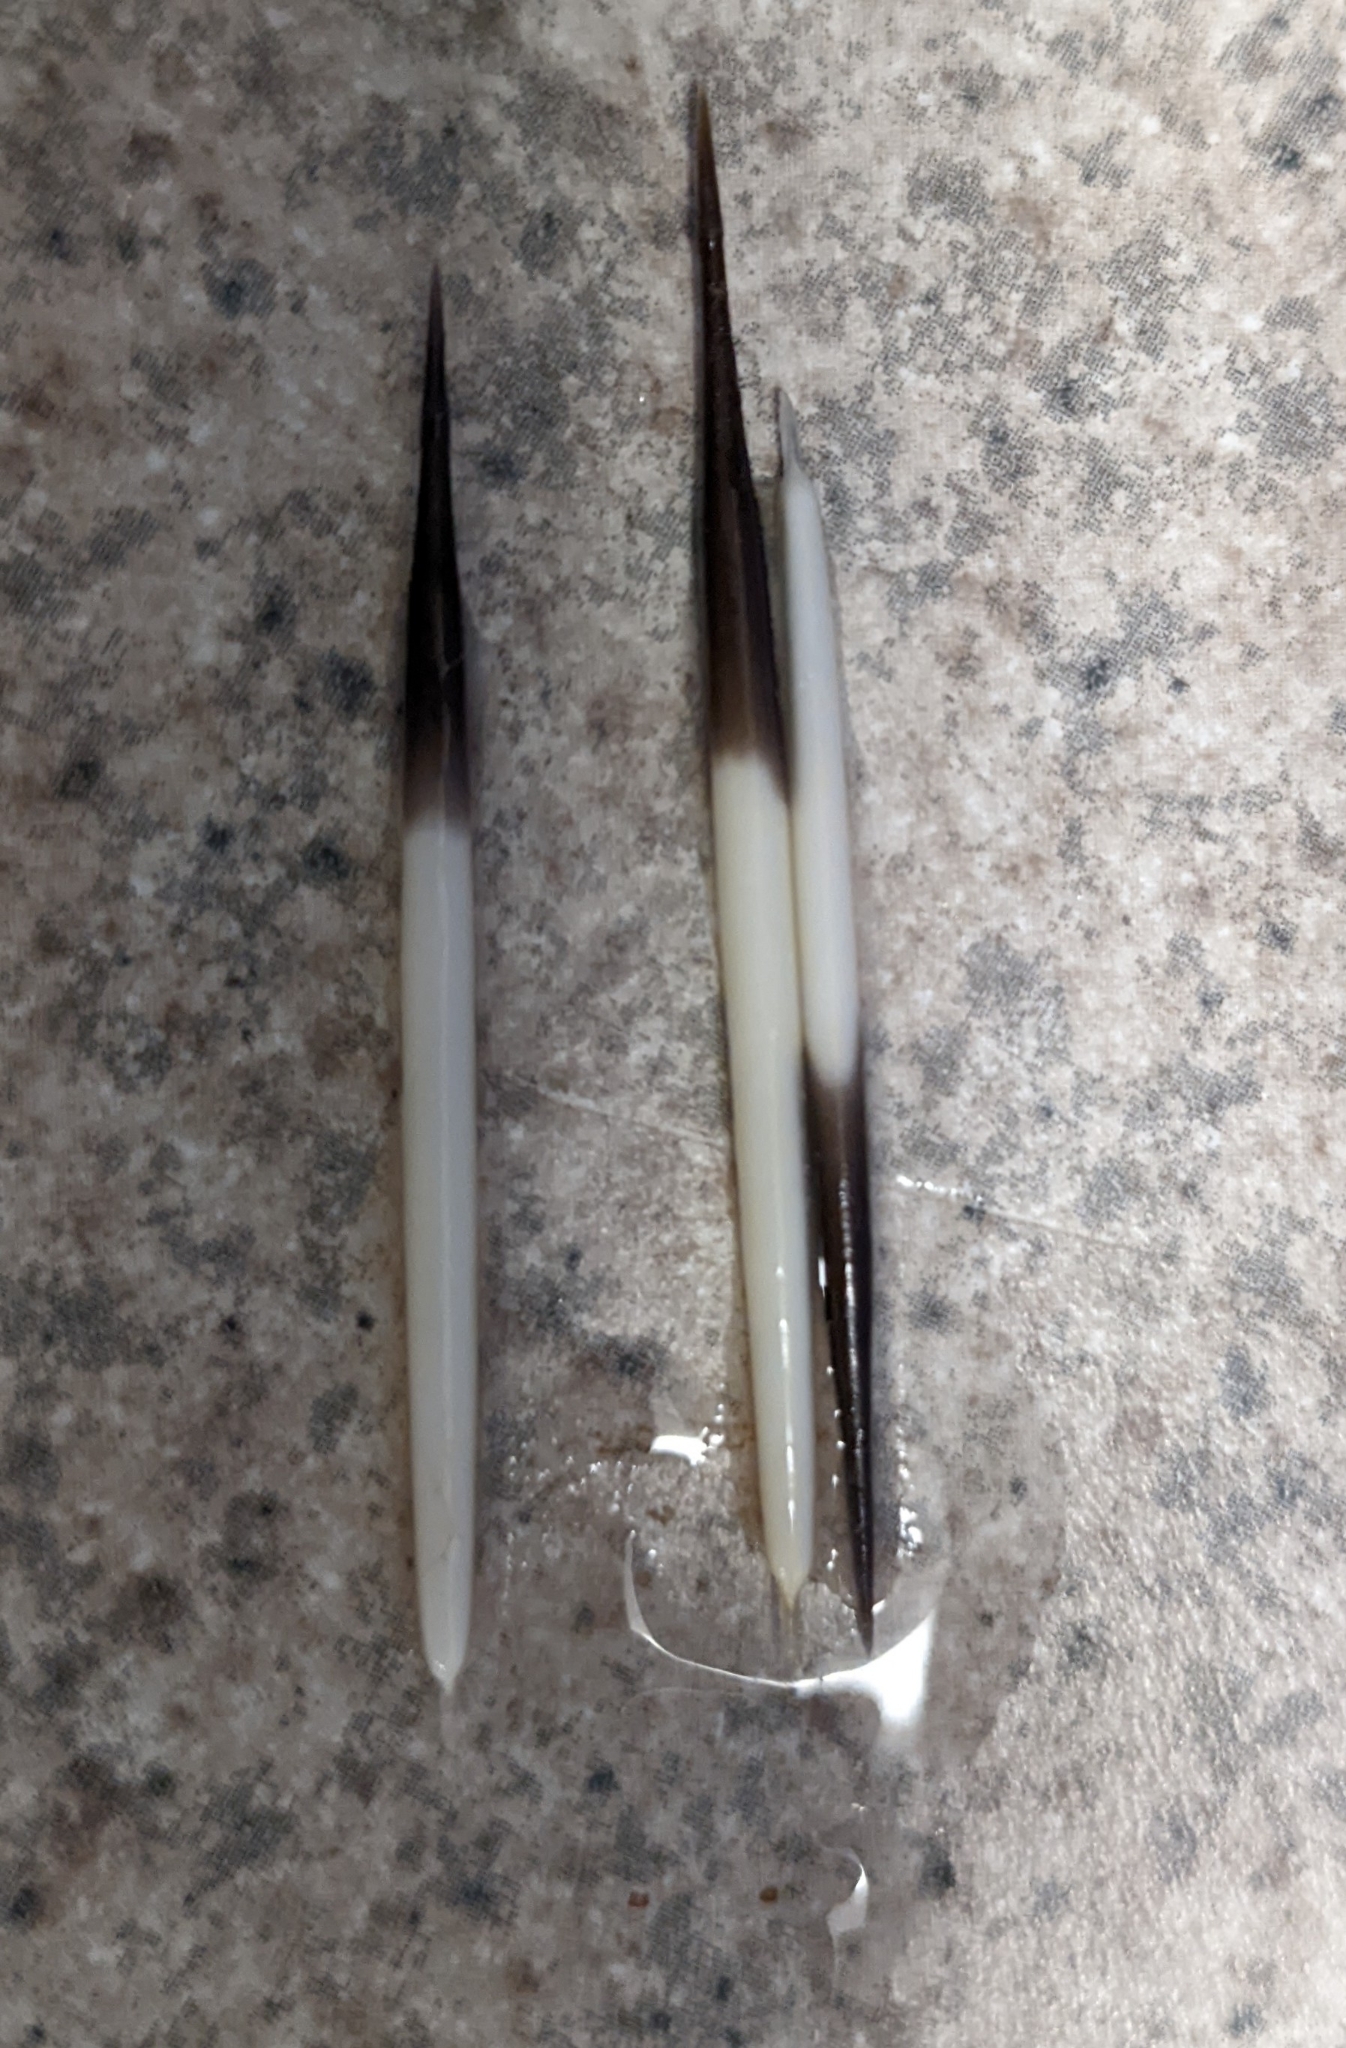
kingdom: Animalia
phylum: Chordata
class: Mammalia
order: Rodentia
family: Erethizontidae
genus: Erethizon
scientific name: Erethizon dorsatus
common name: North american porcupine
